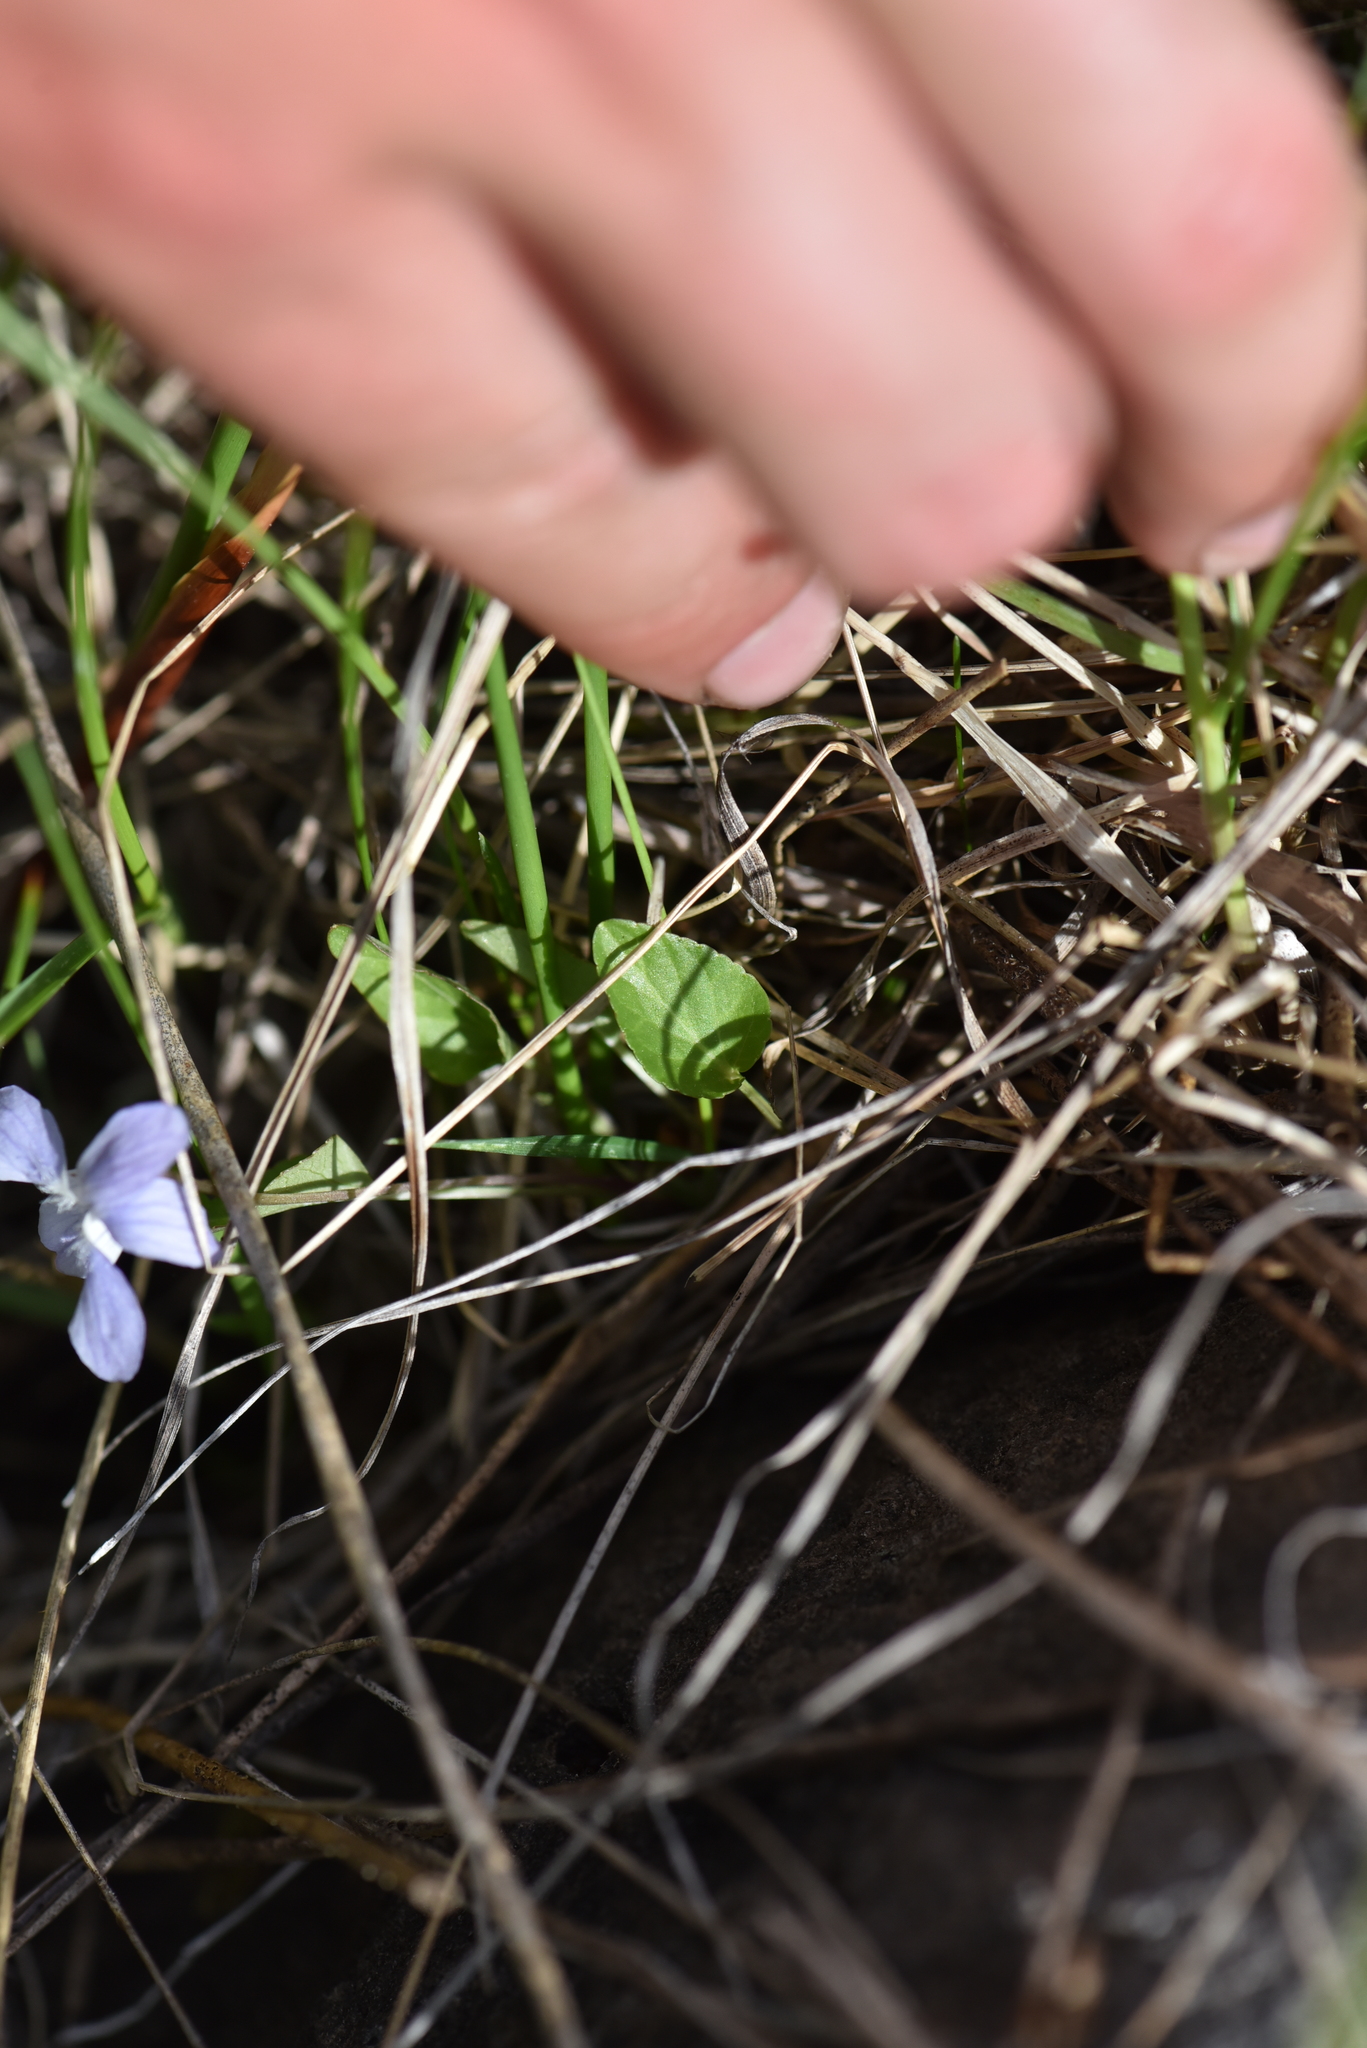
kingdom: Plantae
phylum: Tracheophyta
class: Magnoliopsida
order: Malpighiales
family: Violaceae
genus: Viola
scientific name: Viola adunca
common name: Sand violet
